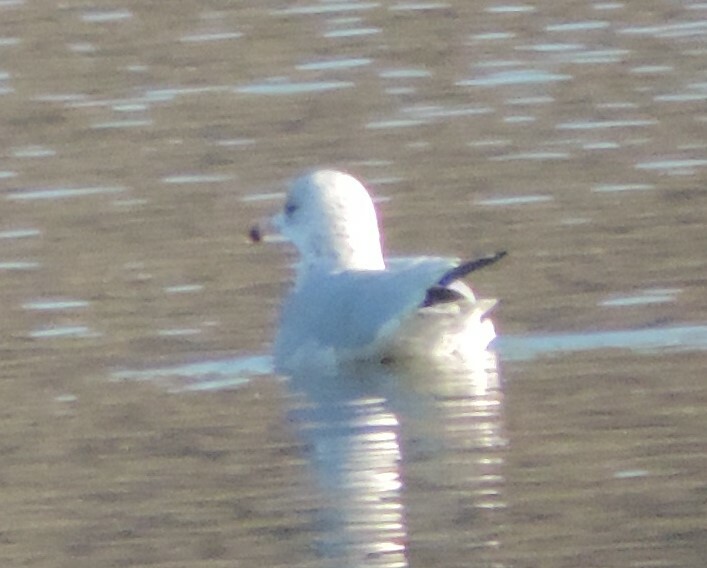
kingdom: Animalia
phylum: Chordata
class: Aves
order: Charadriiformes
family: Laridae
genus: Larus
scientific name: Larus delawarensis
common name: Ring-billed gull
